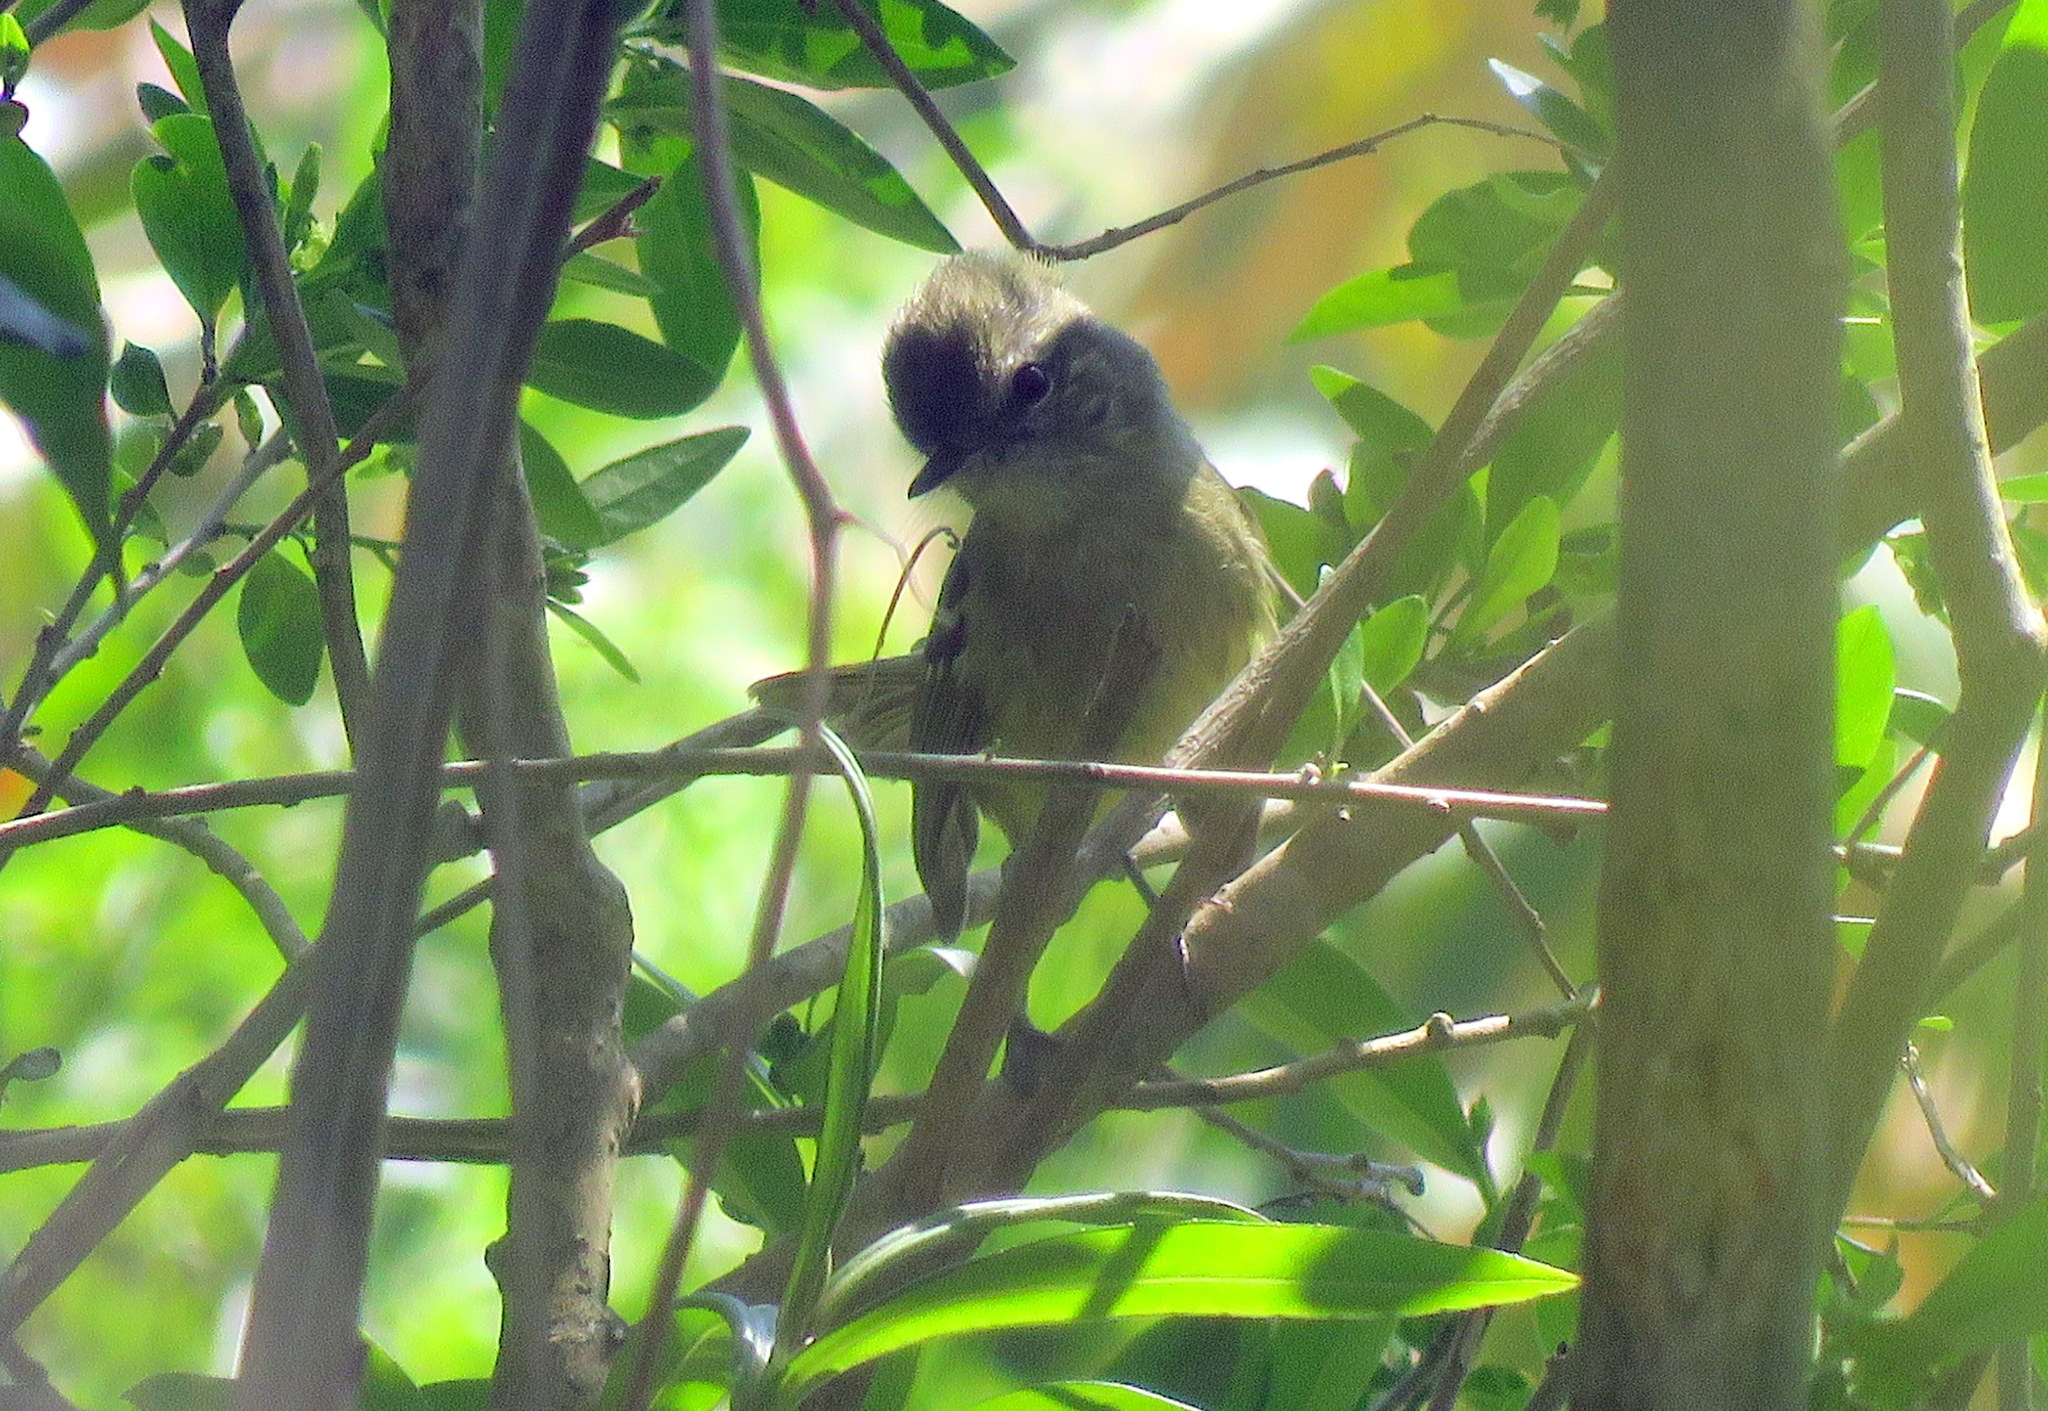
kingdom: Animalia
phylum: Chordata
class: Aves
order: Passeriformes
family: Tyrannidae
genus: Phylloscartes
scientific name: Phylloscartes ventralis
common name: Mottle-cheeked tyrannulet
